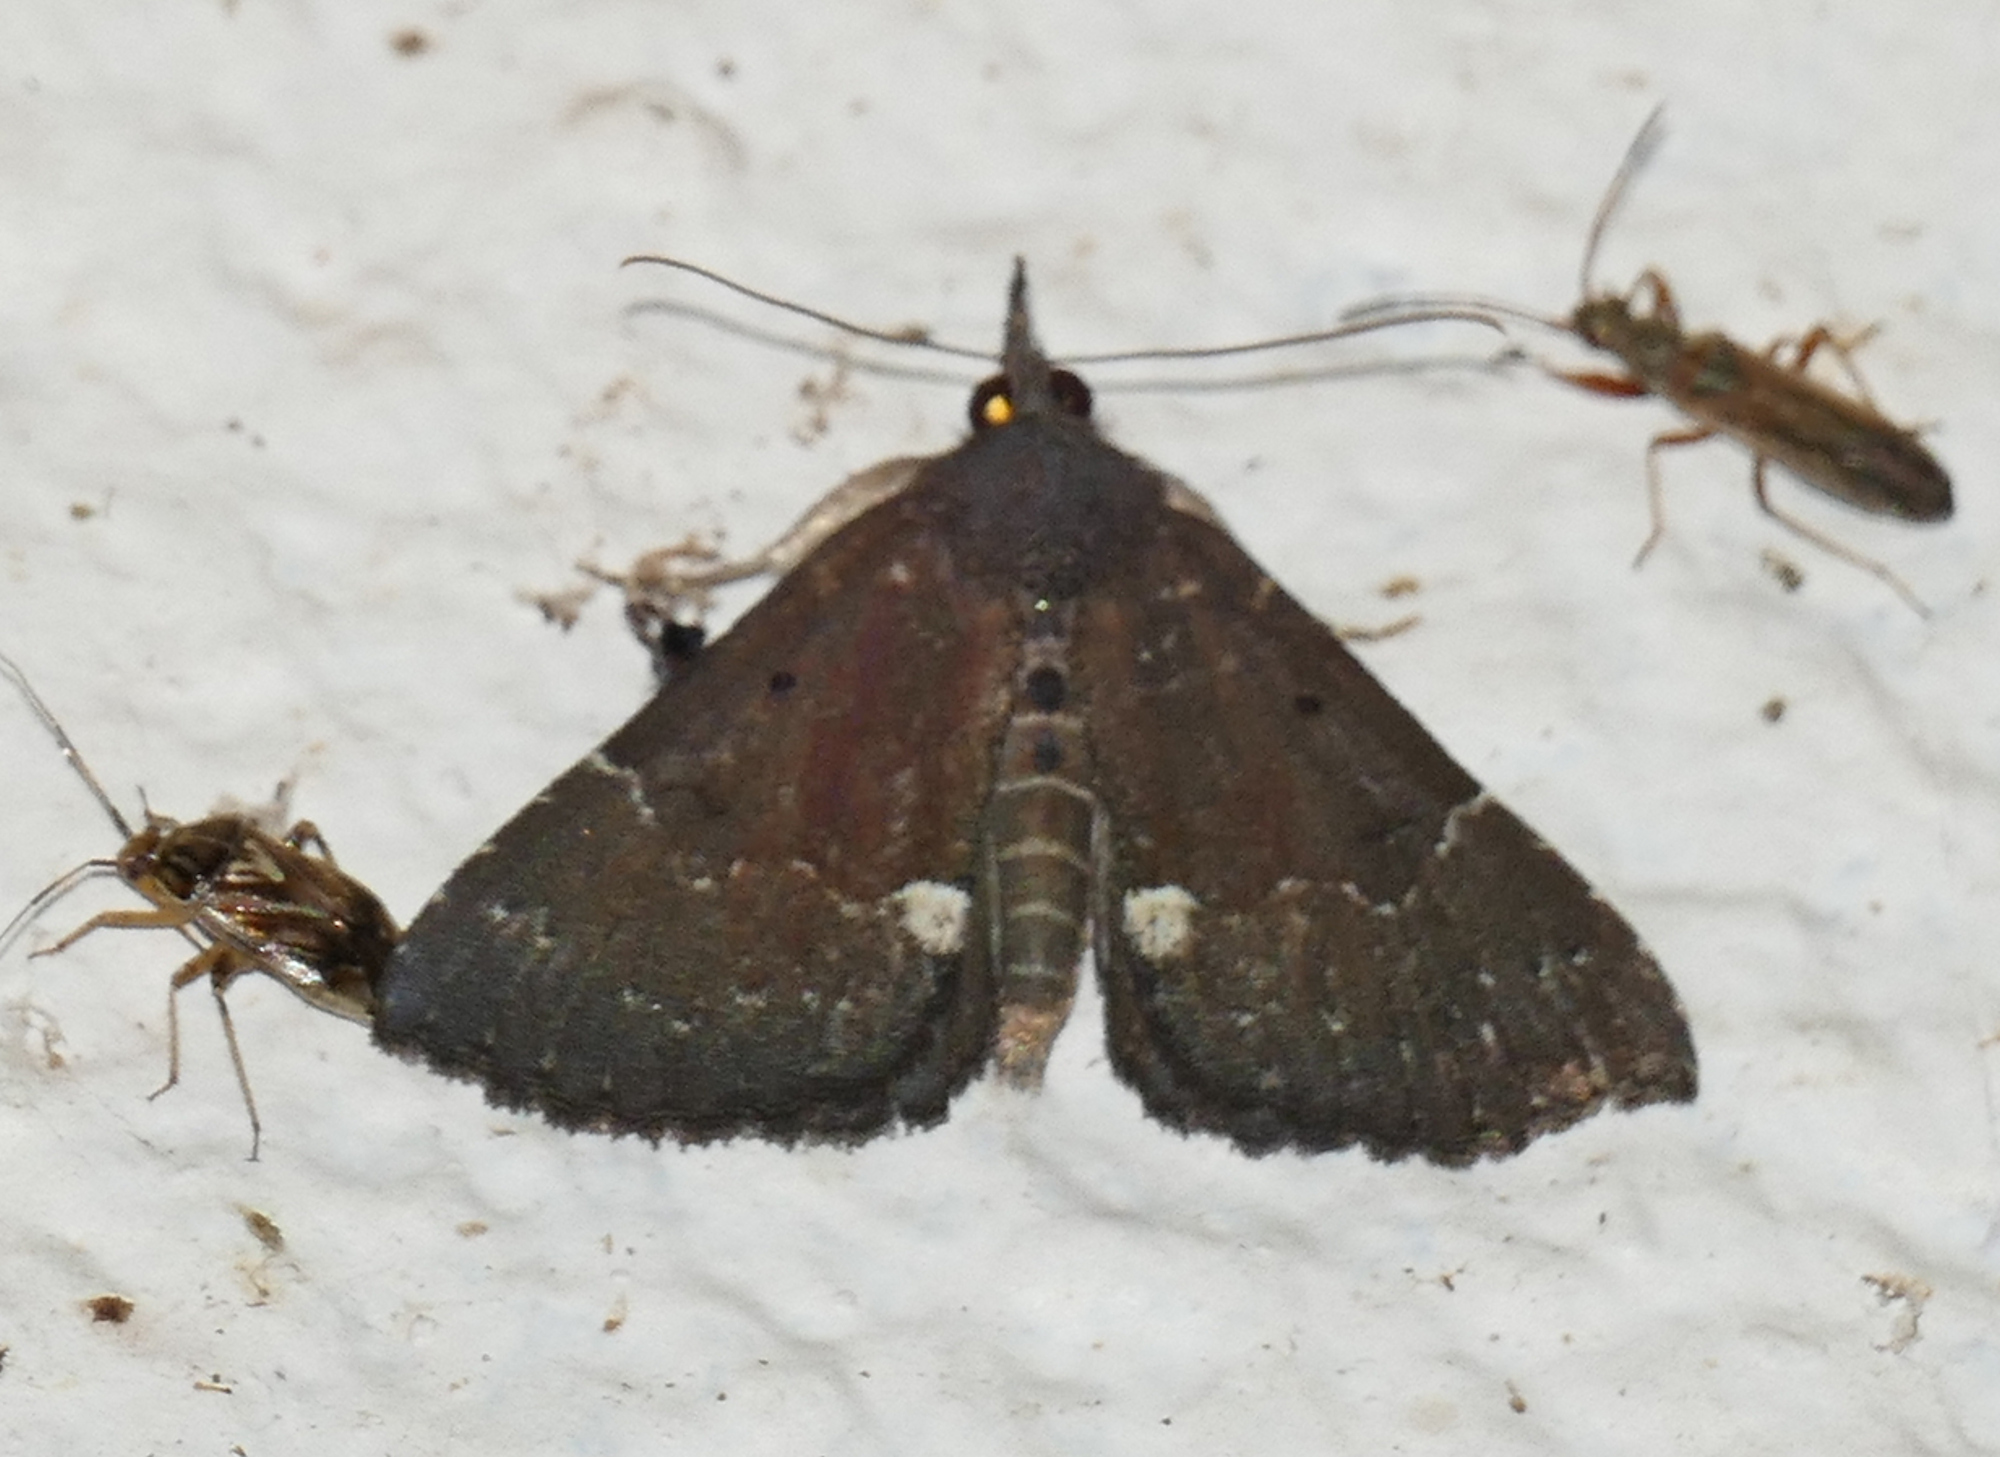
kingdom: Animalia
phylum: Arthropoda
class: Insecta
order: Lepidoptera
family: Erebidae
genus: Hypena
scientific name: Hypena bijugalis
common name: Dimorphic bomolocha moth
